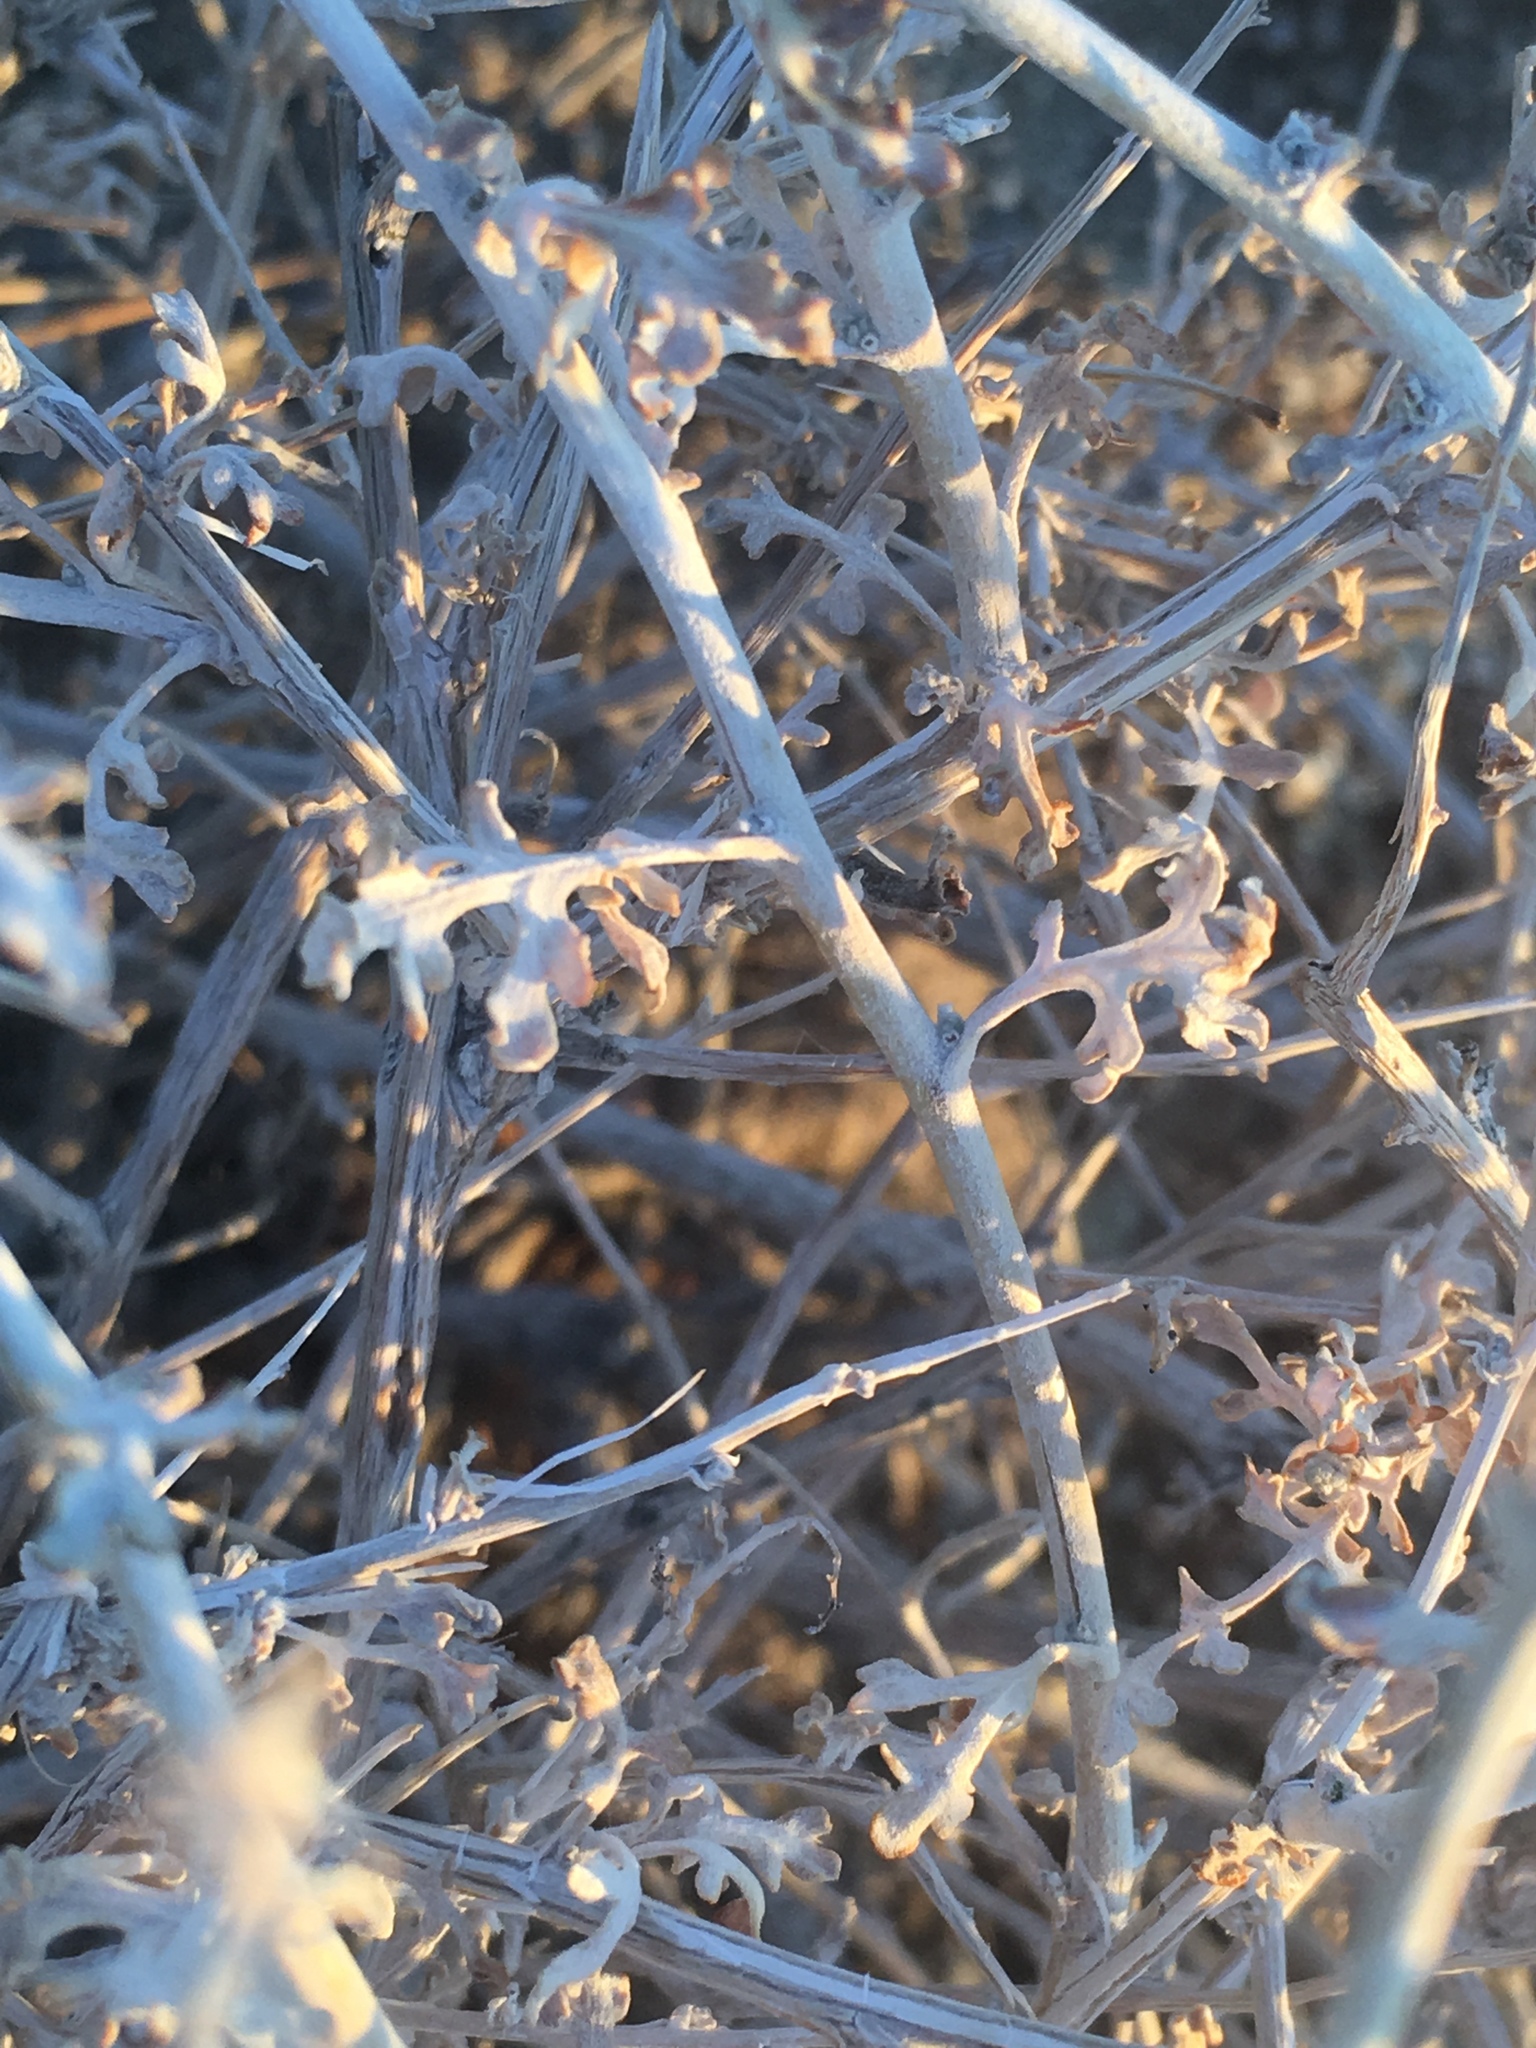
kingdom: Plantae
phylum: Tracheophyta
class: Magnoliopsida
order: Asterales
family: Asteraceae
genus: Ambrosia
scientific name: Ambrosia dumosa
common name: Bur-sage
